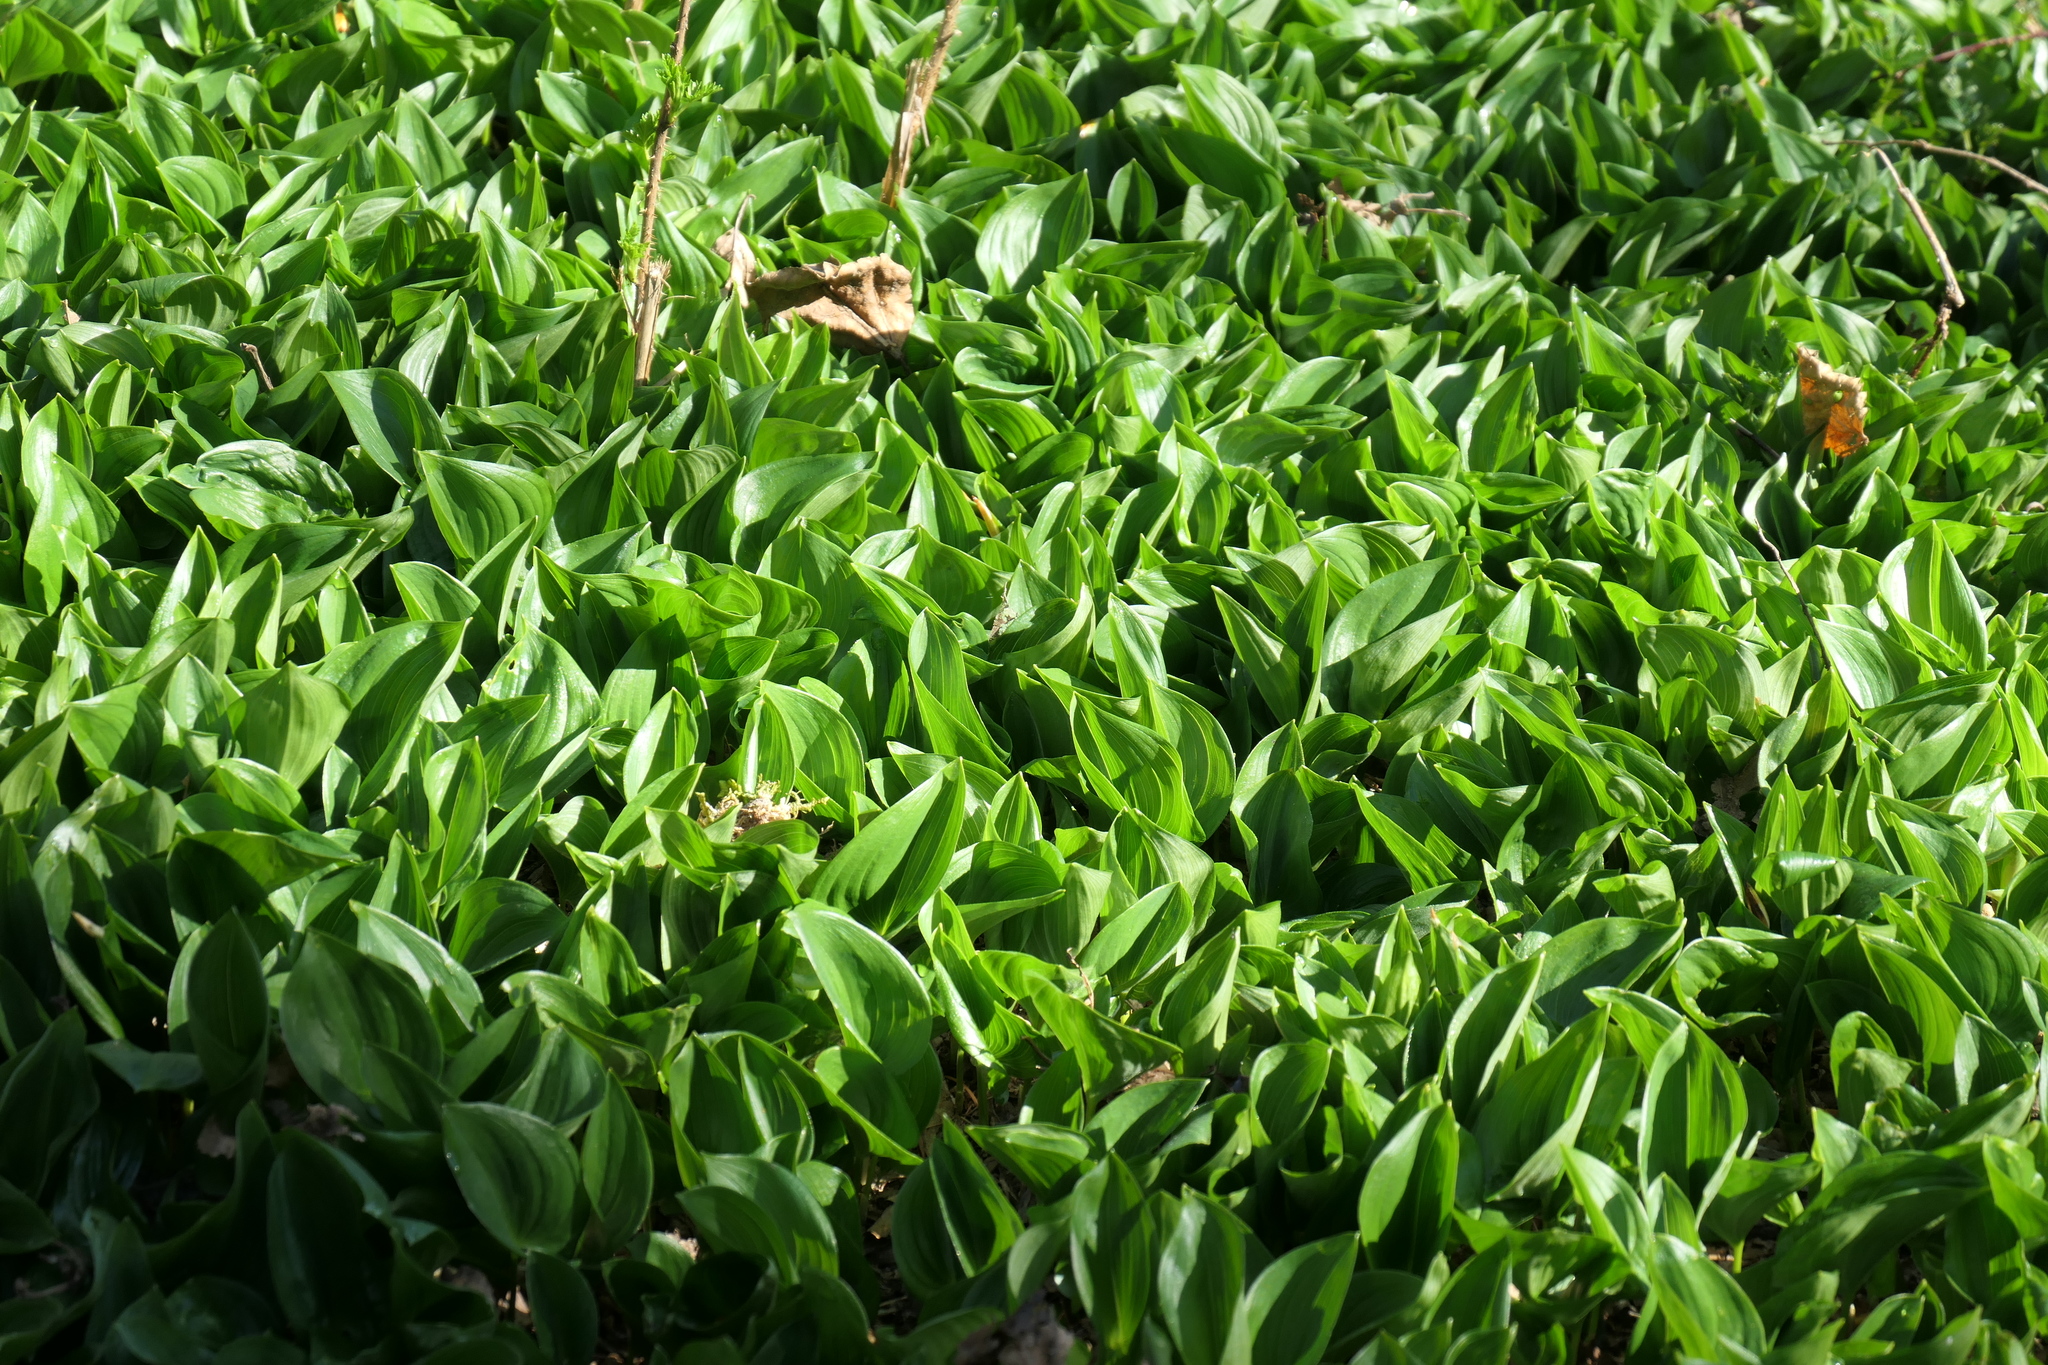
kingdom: Plantae
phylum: Tracheophyta
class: Liliopsida
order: Asparagales
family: Asparagaceae
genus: Maianthemum
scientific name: Maianthemum dilatatum
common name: False lily-of-the-valley
